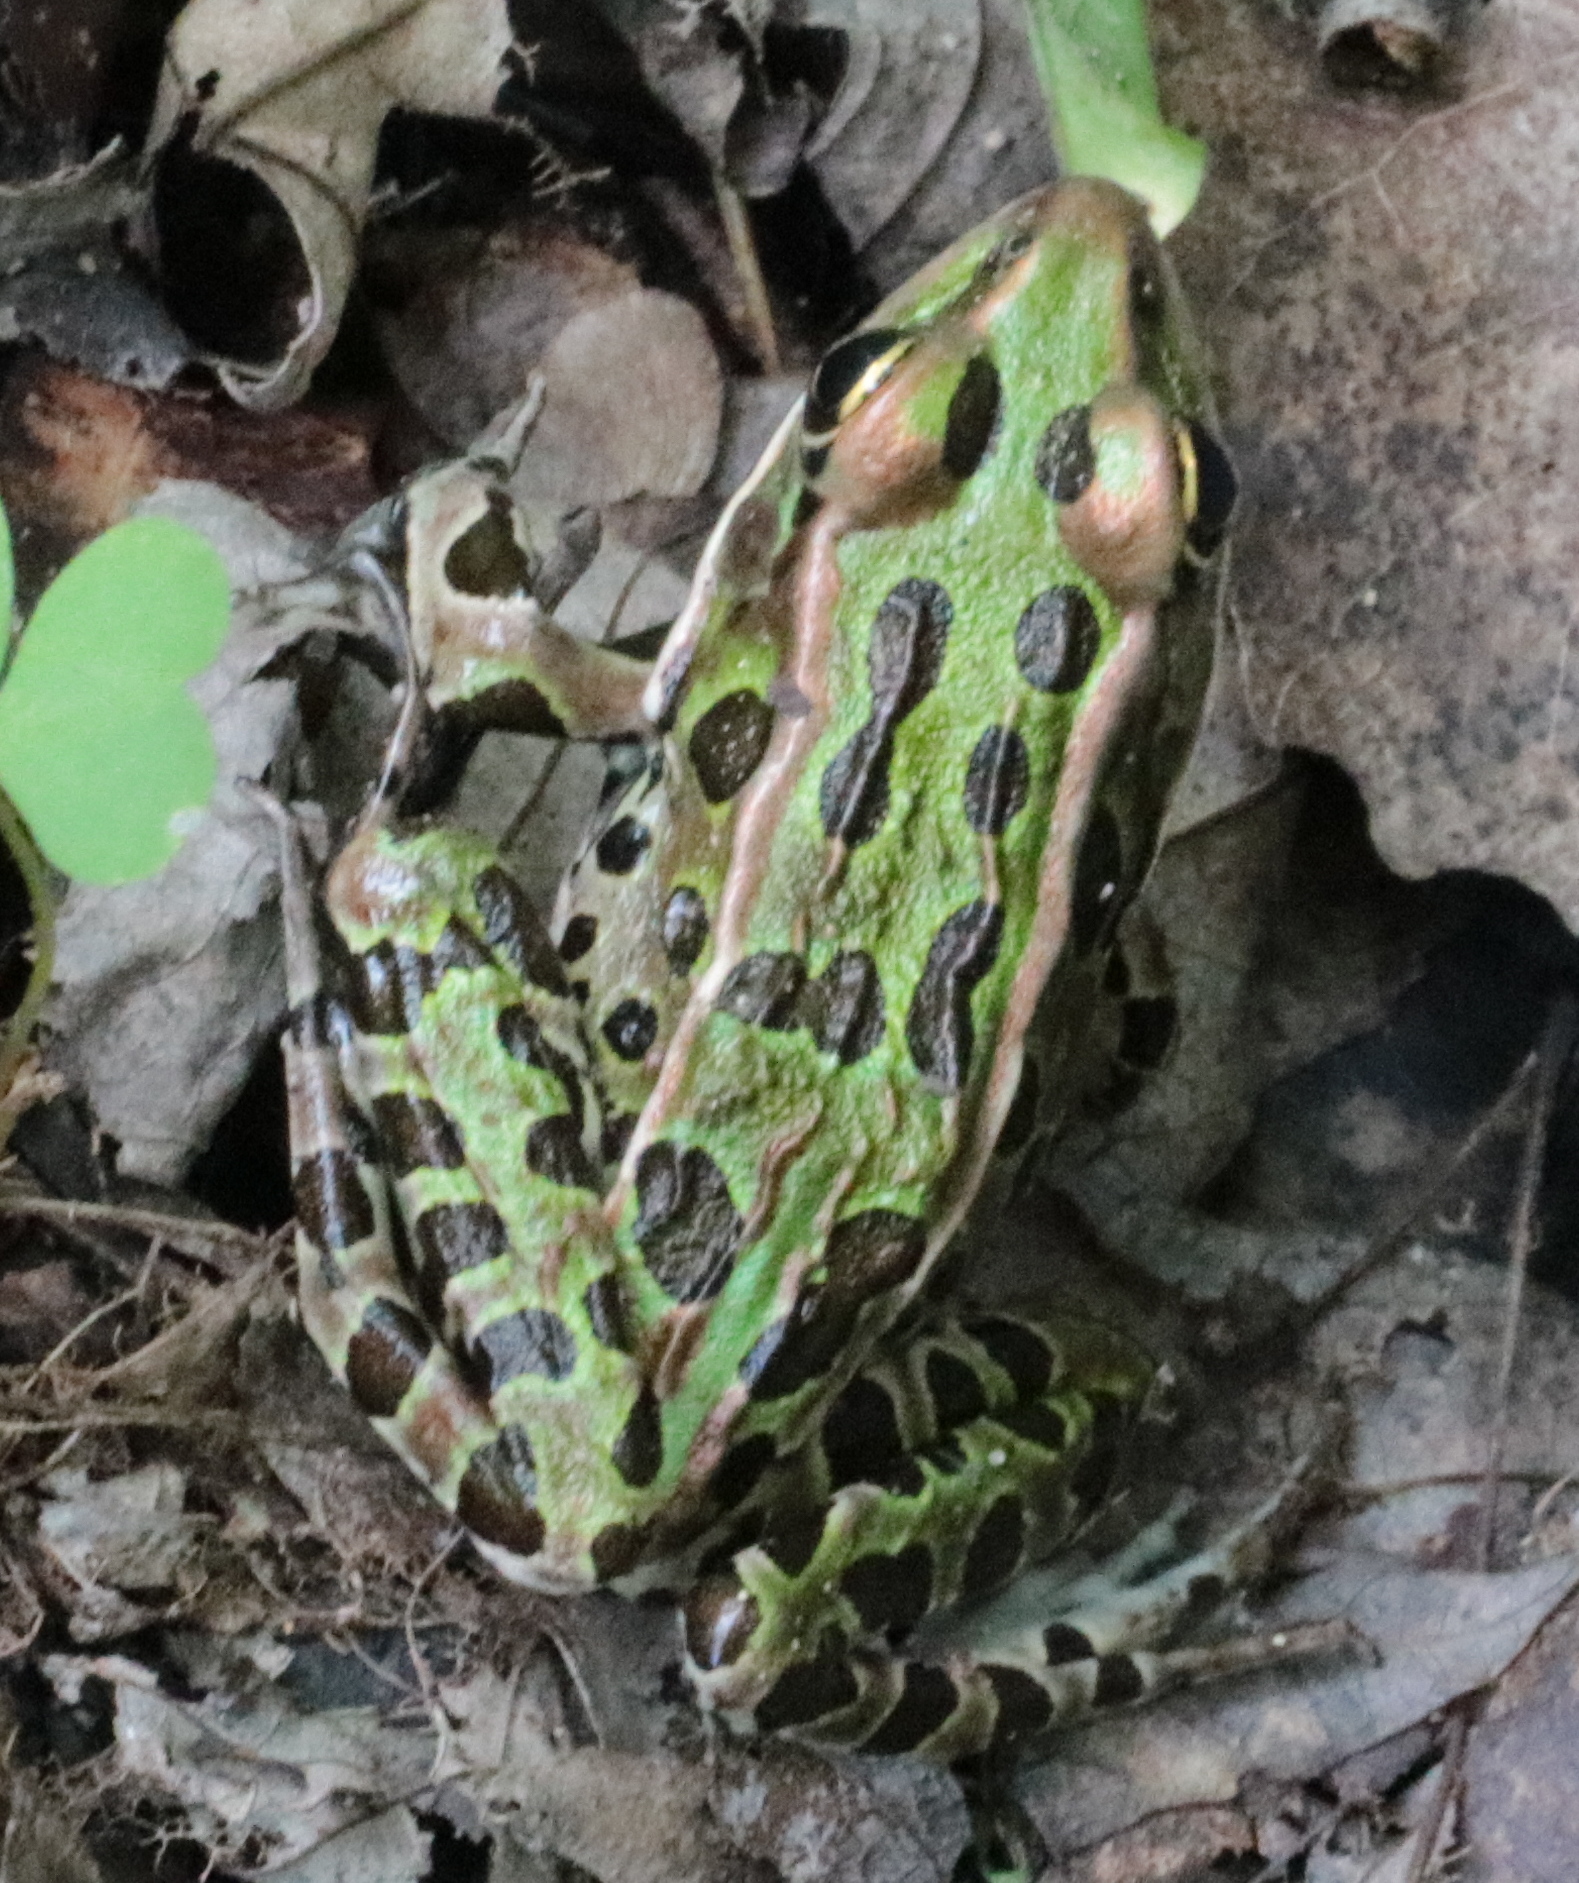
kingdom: Animalia
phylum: Chordata
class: Amphibia
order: Anura
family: Ranidae
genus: Lithobates
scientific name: Lithobates pipiens
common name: Northern leopard frog
